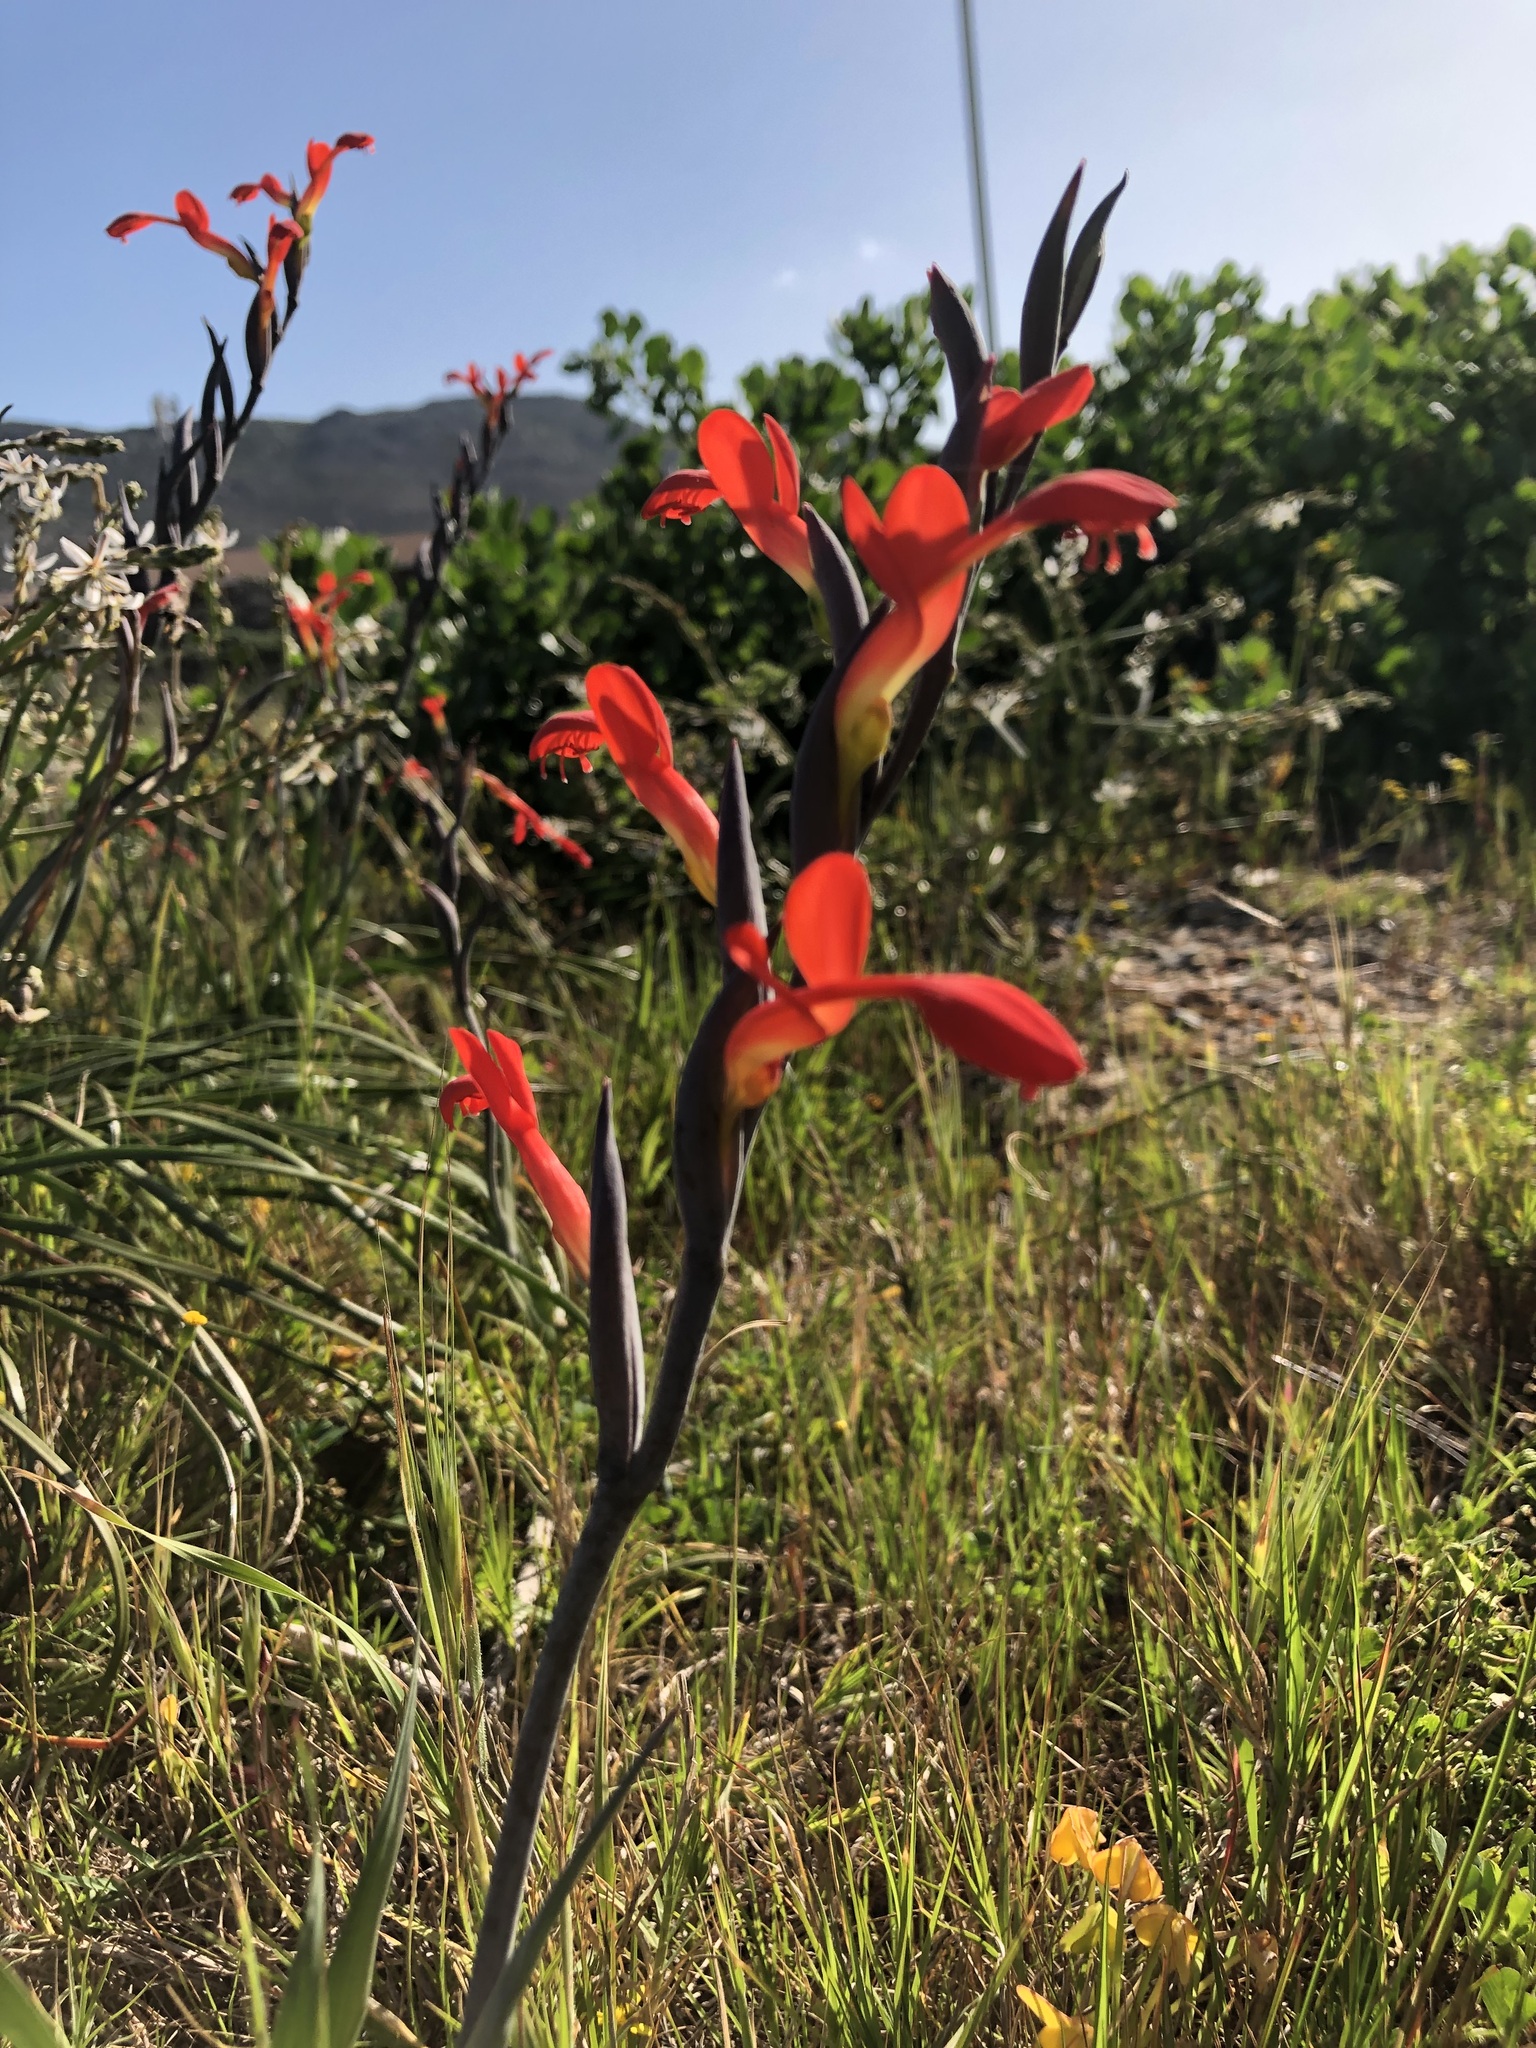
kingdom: Plantae
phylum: Tracheophyta
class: Liliopsida
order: Asparagales
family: Iridaceae
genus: Gladiolus
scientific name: Gladiolus cunonius
